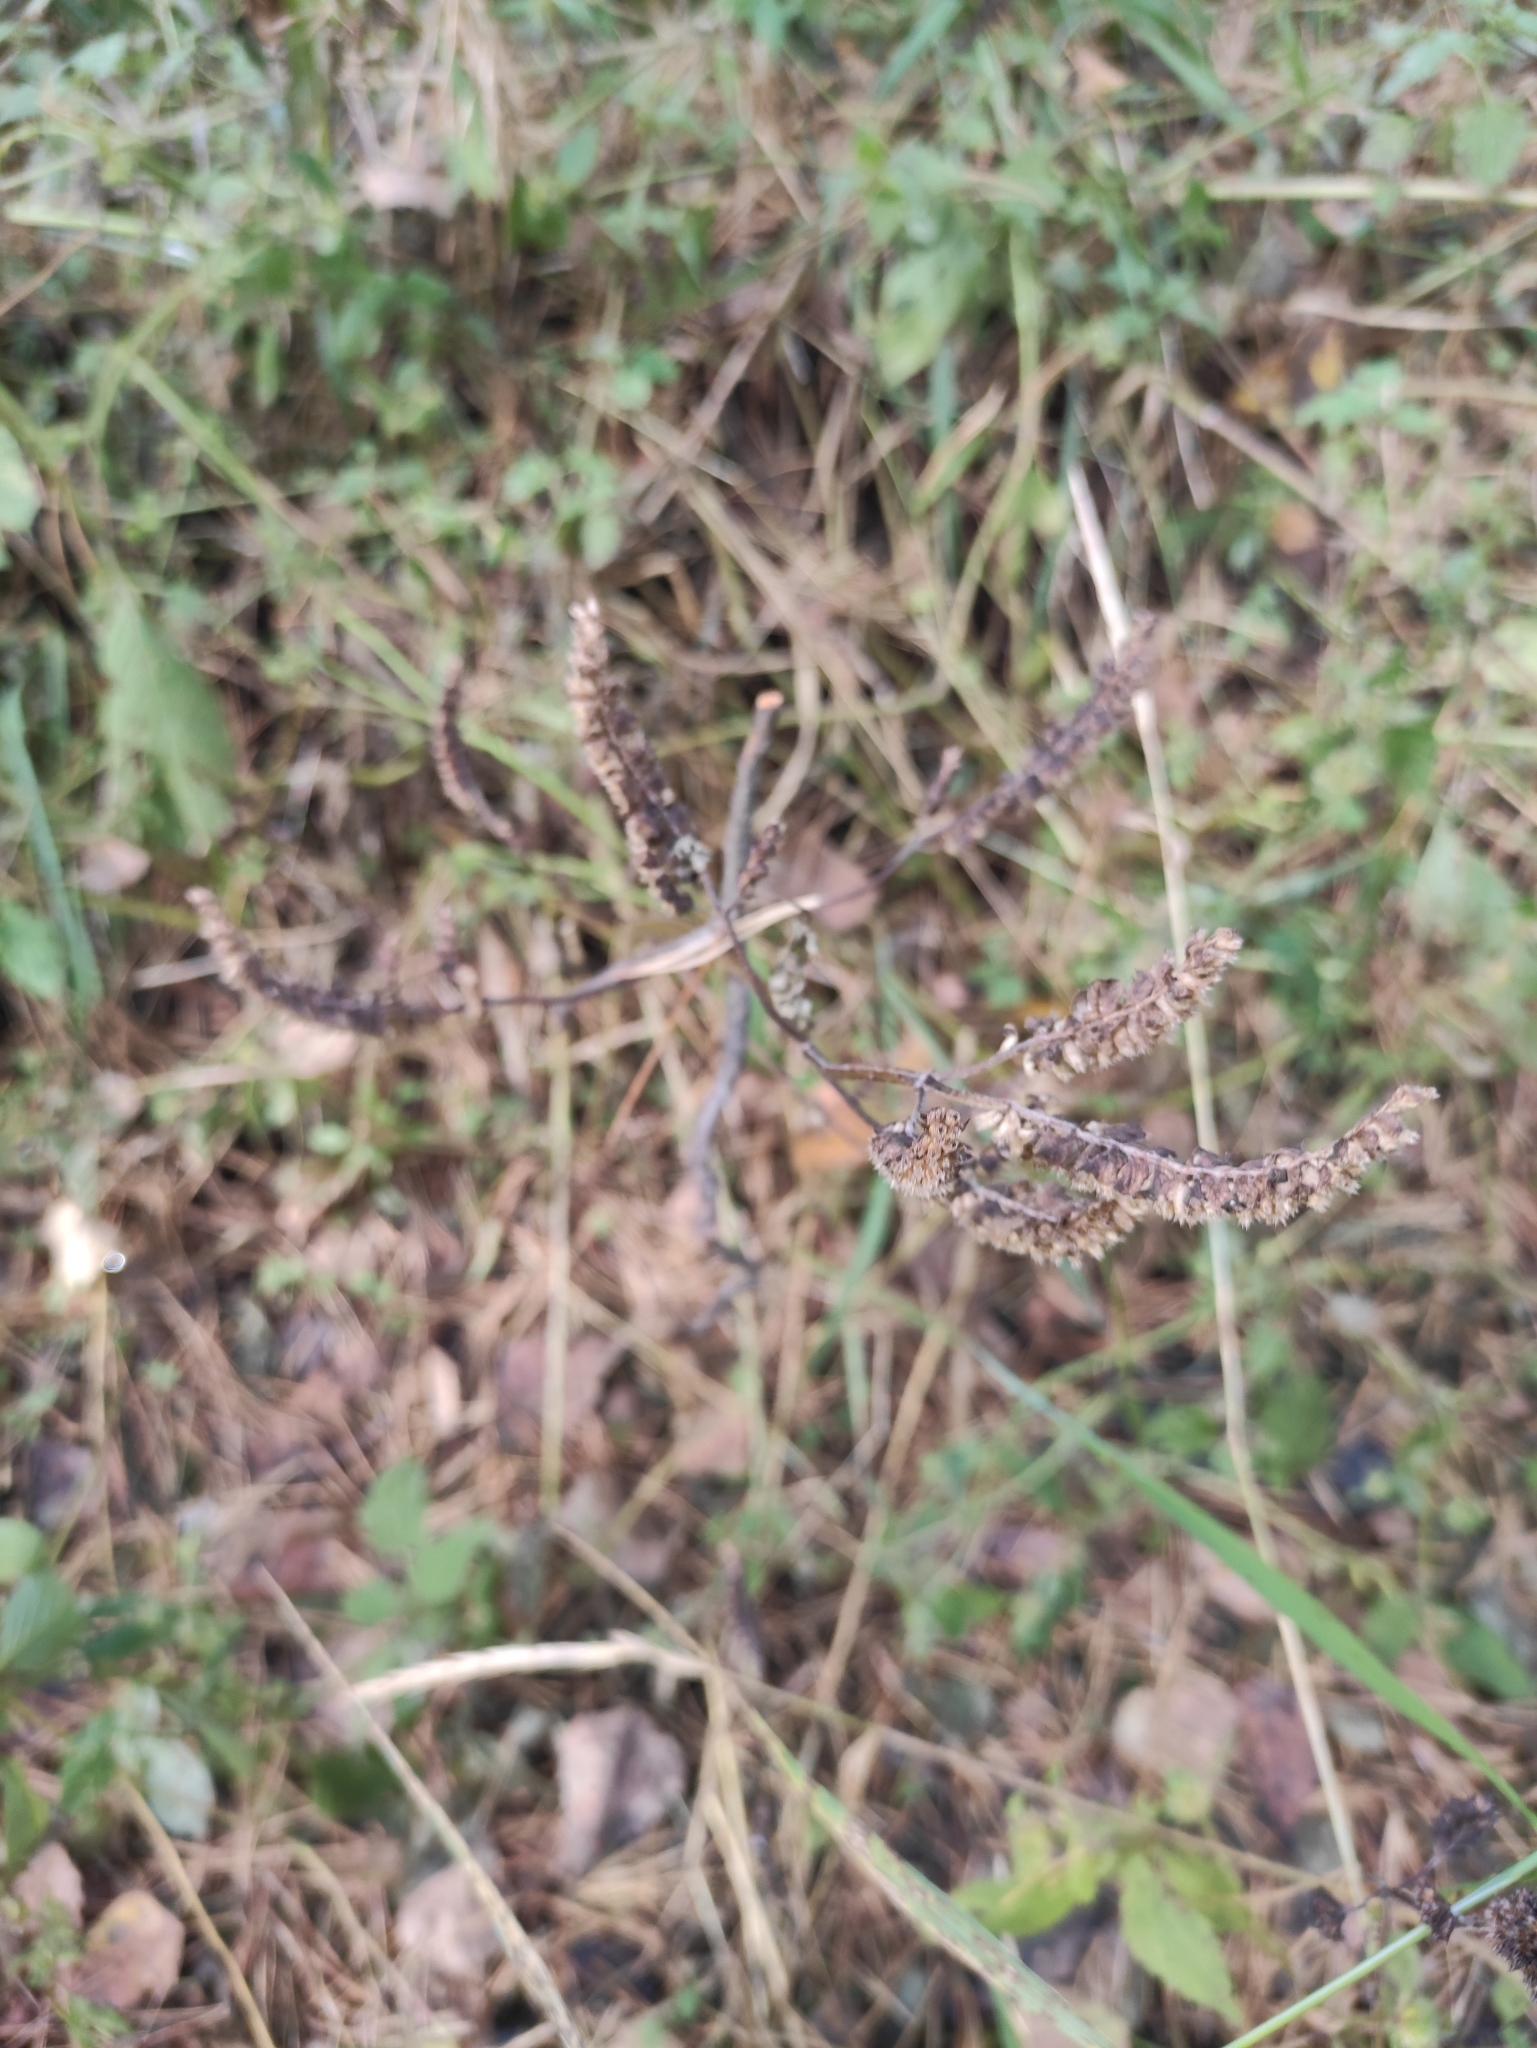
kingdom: Plantae
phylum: Tracheophyta
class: Magnoliopsida
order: Lamiales
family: Lamiaceae
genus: Elsholtzia
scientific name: Elsholtzia ciliata
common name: Ciliate elsholtzia
